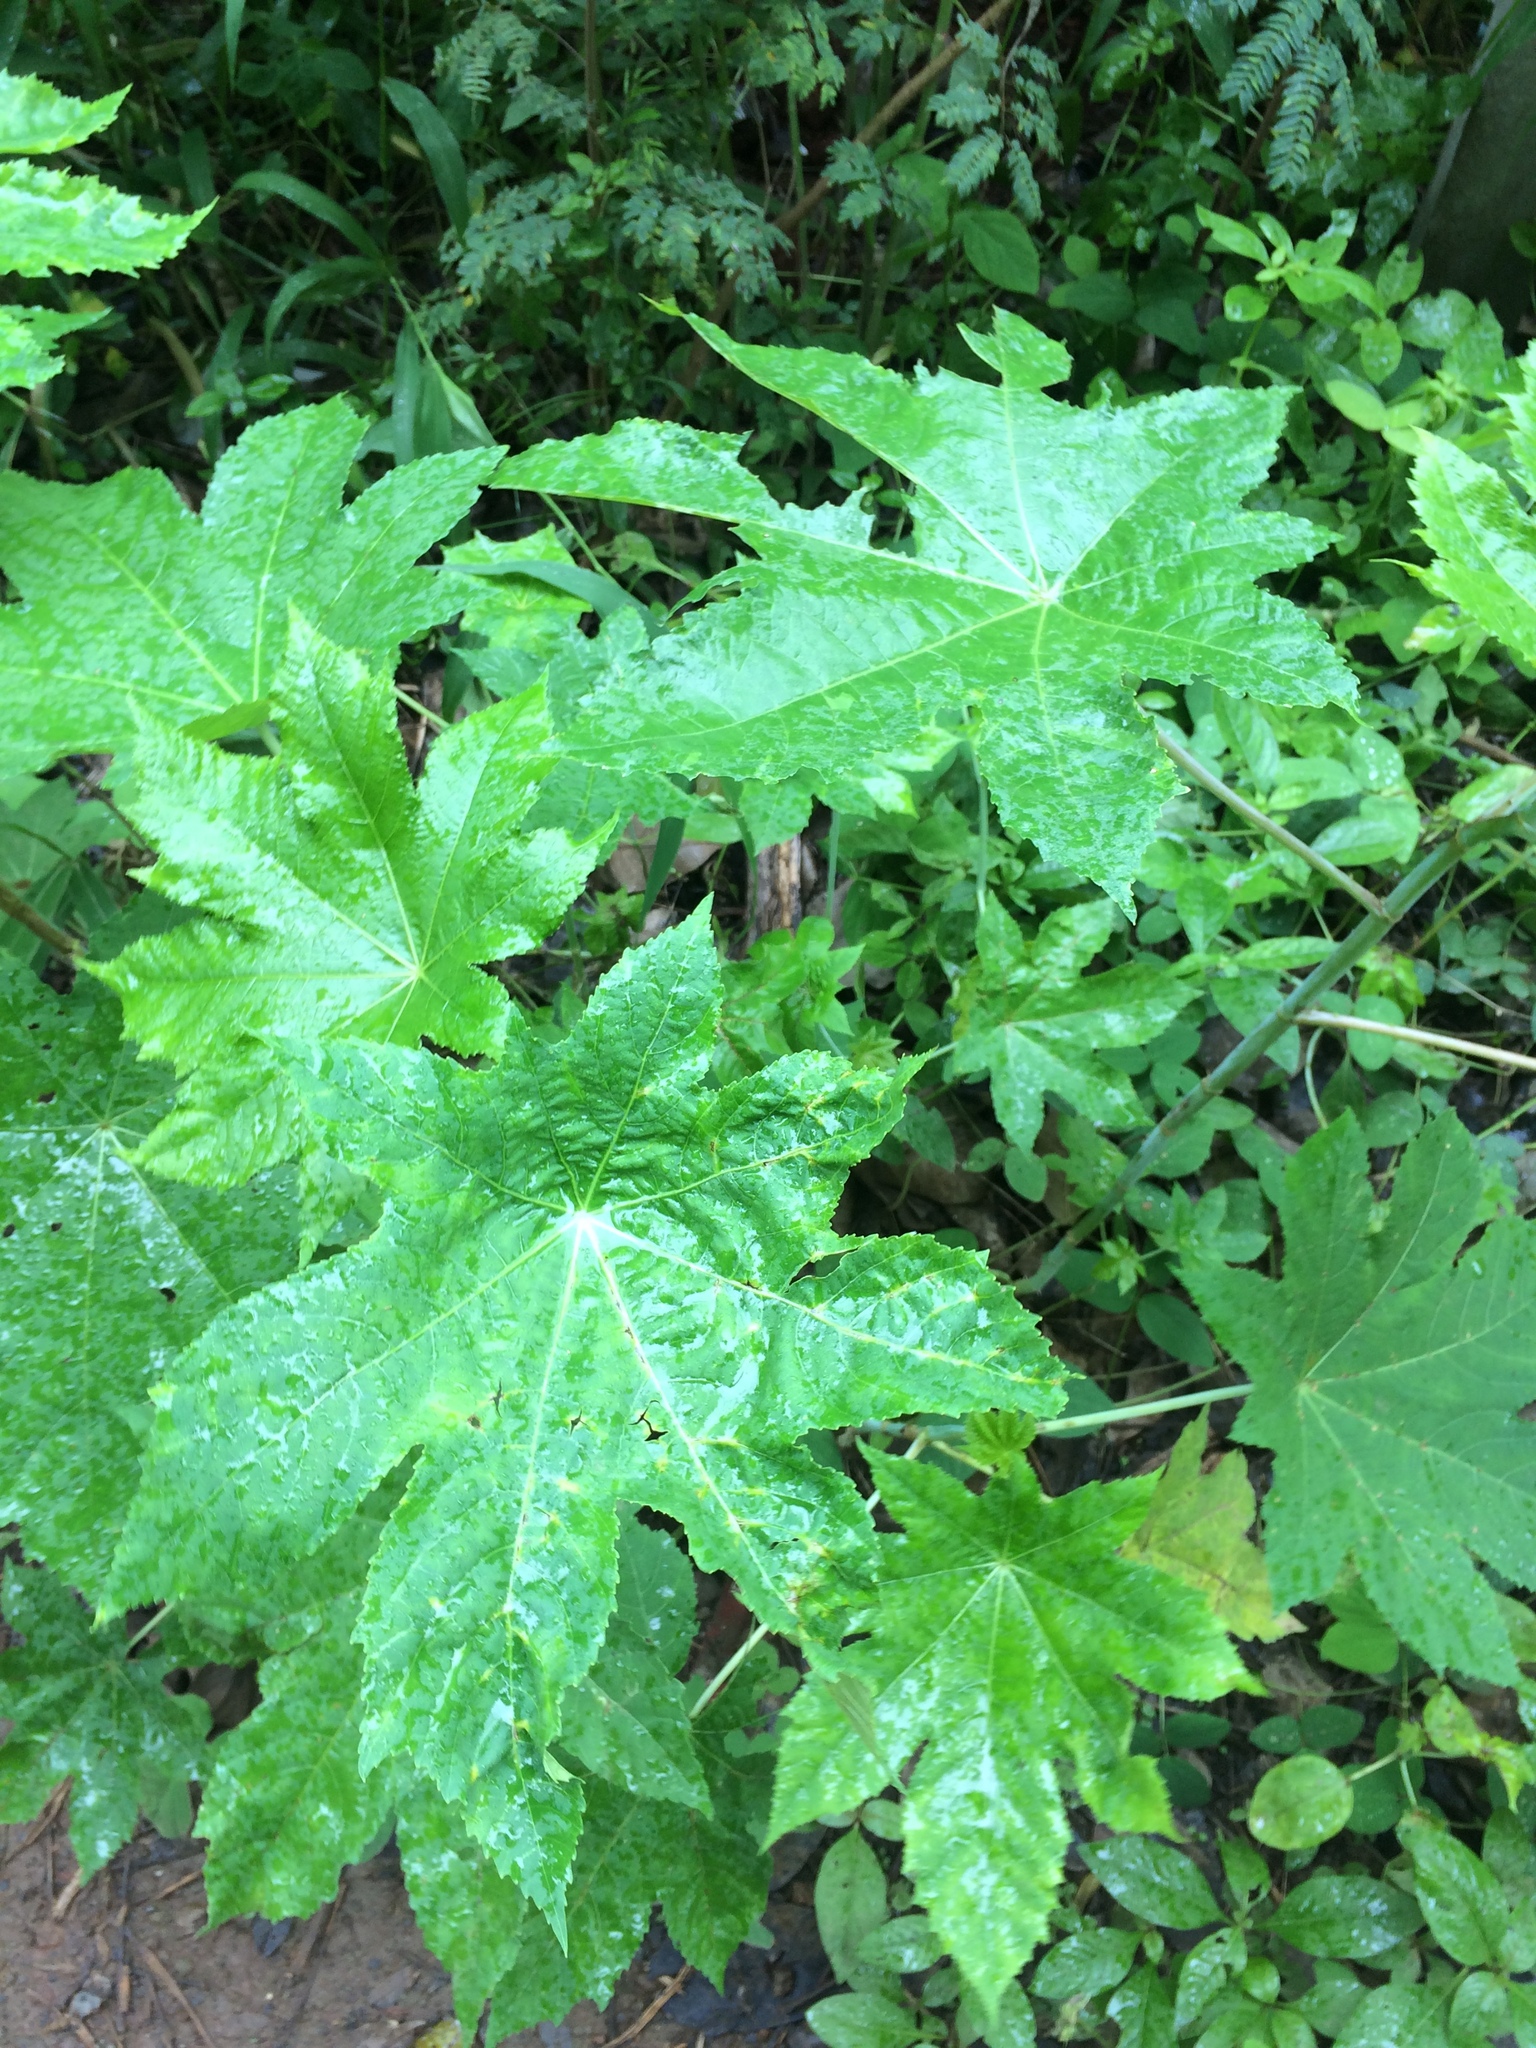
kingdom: Plantae
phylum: Tracheophyta
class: Magnoliopsida
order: Malpighiales
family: Euphorbiaceae
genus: Ricinus
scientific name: Ricinus communis
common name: Castor-oil-plant
